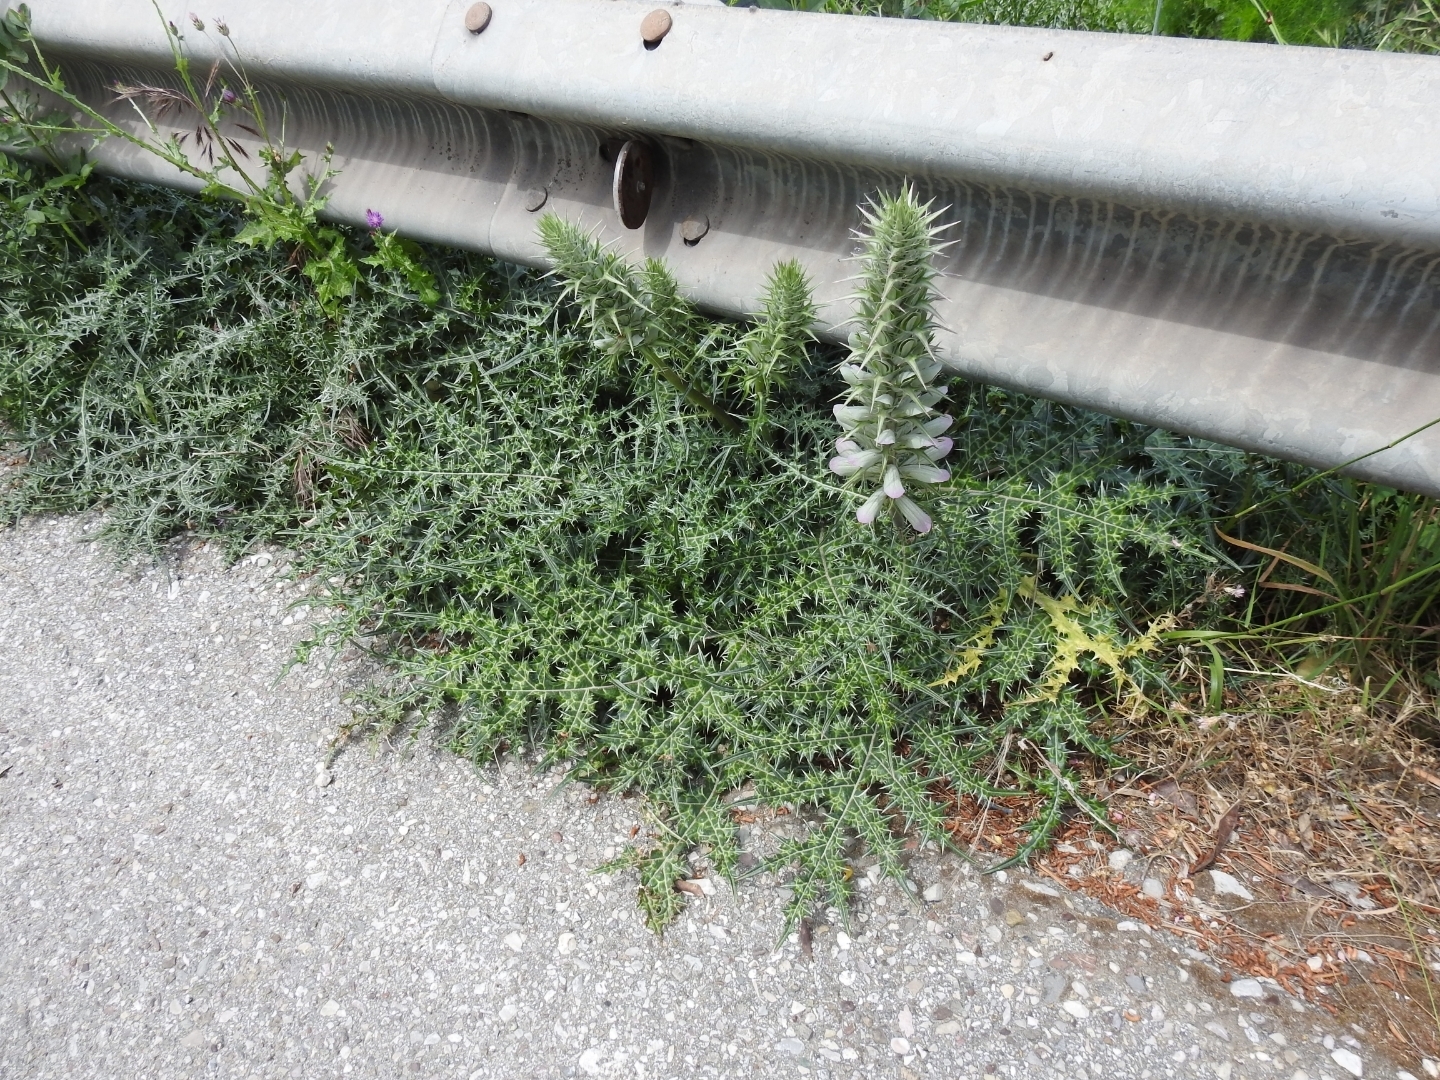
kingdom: Plantae
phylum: Tracheophyta
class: Magnoliopsida
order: Lamiales
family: Acanthaceae
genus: Acanthus
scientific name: Acanthus spinosus
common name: Spiny bear's-breech
